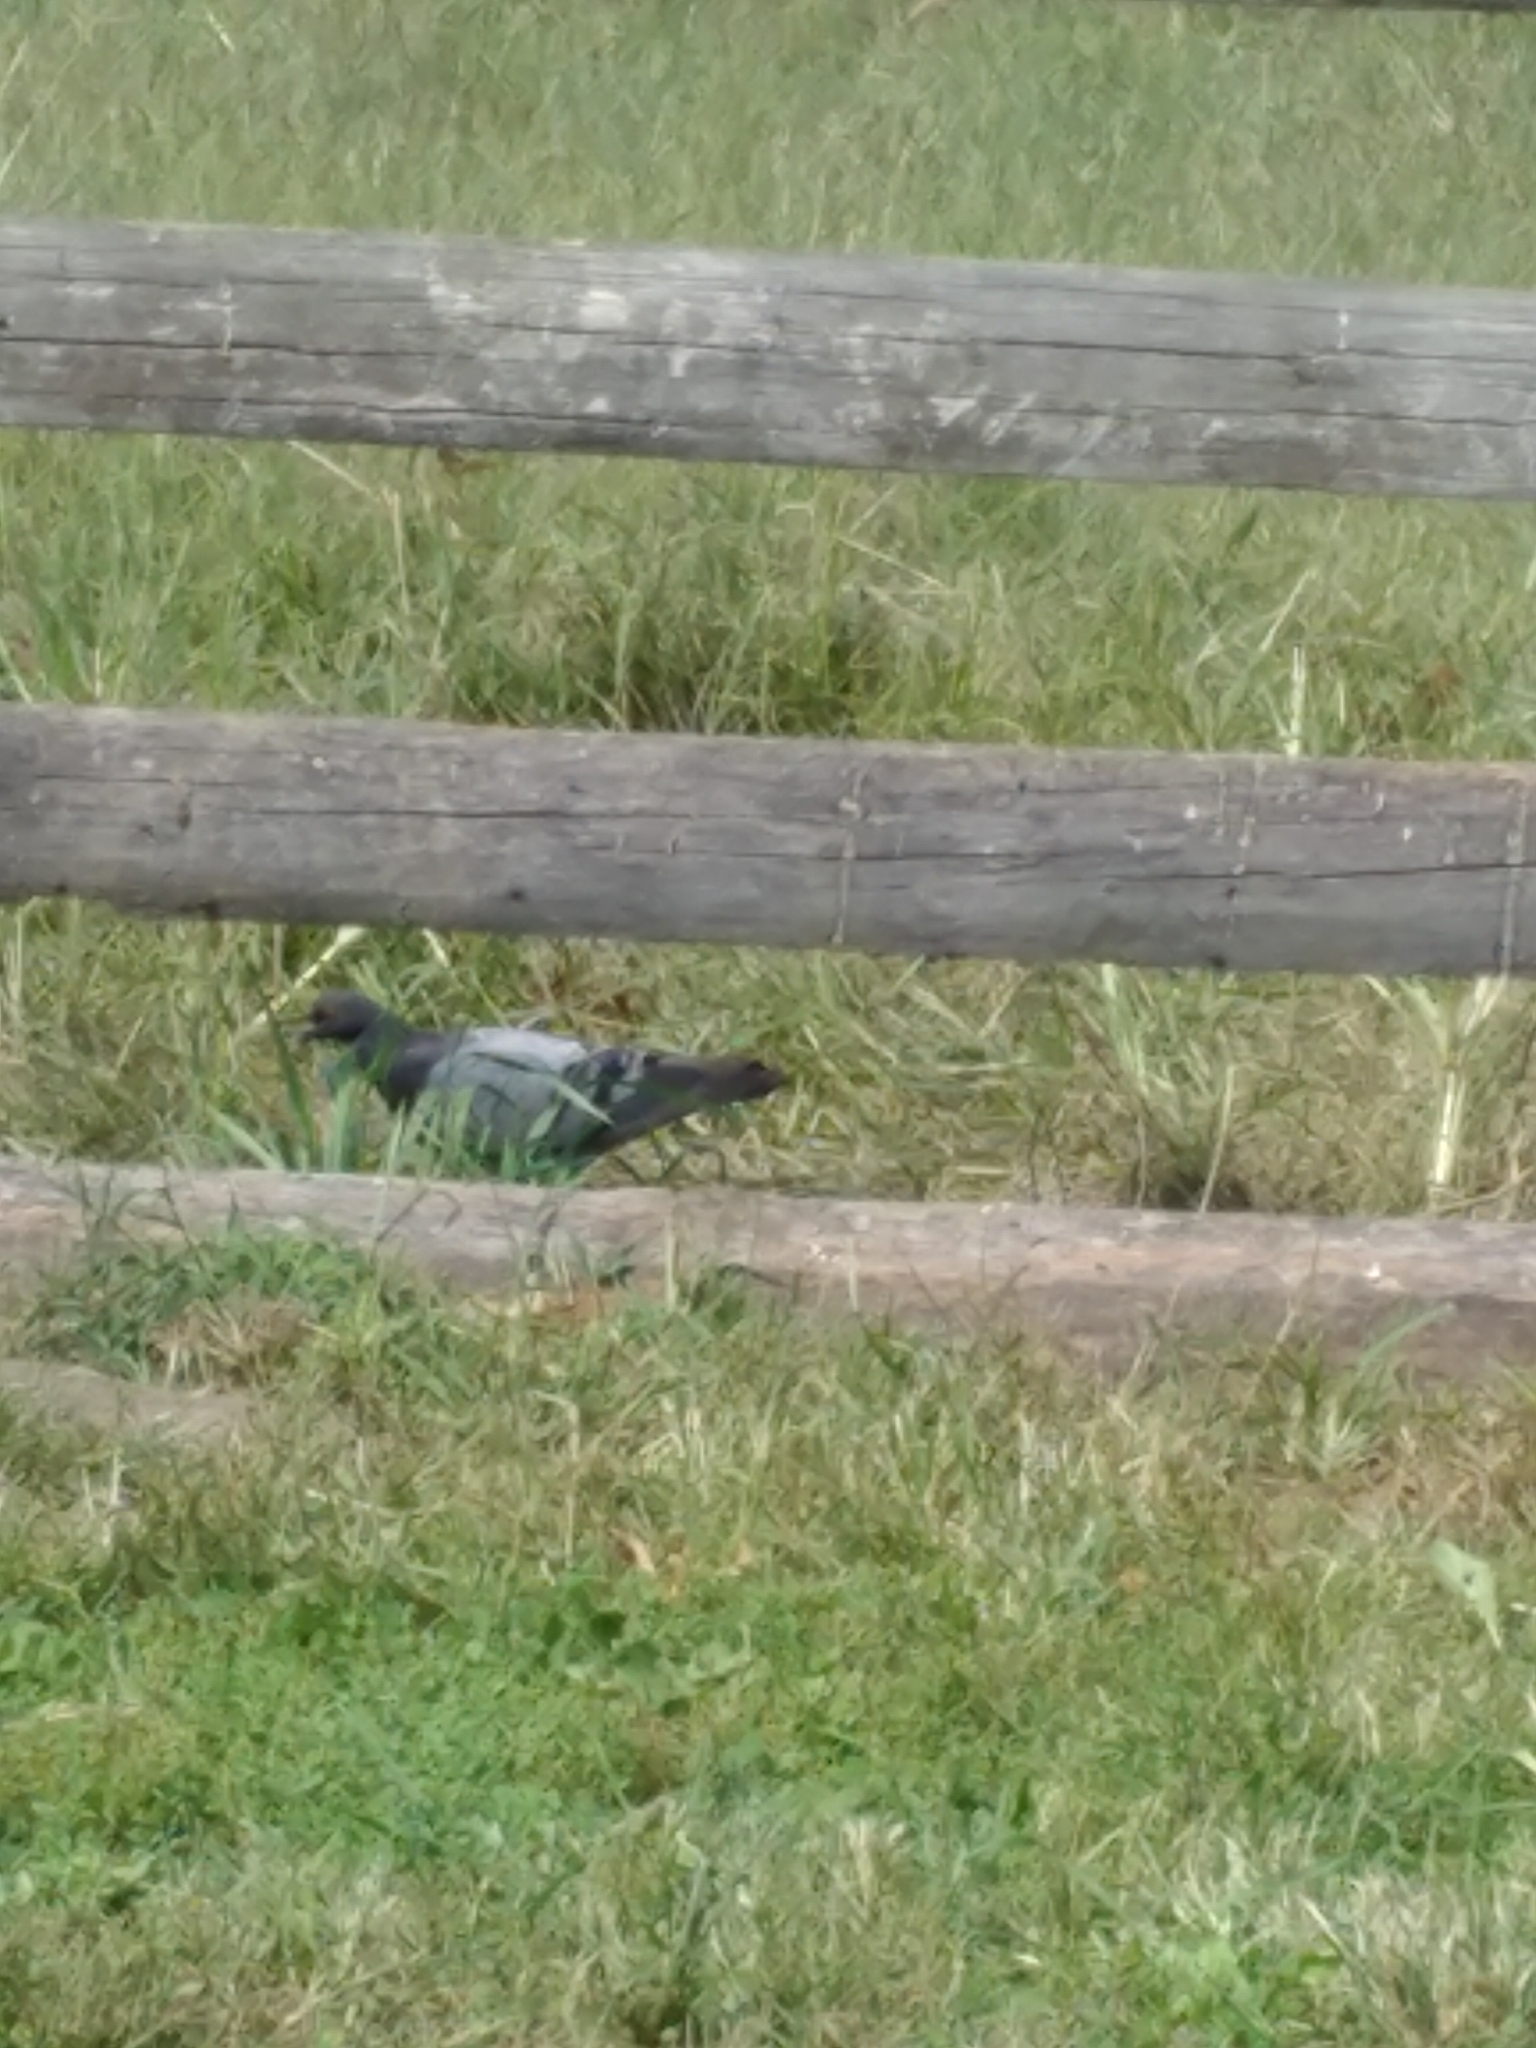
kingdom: Animalia
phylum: Chordata
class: Aves
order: Columbiformes
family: Columbidae
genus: Columba
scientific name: Columba livia
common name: Rock pigeon
